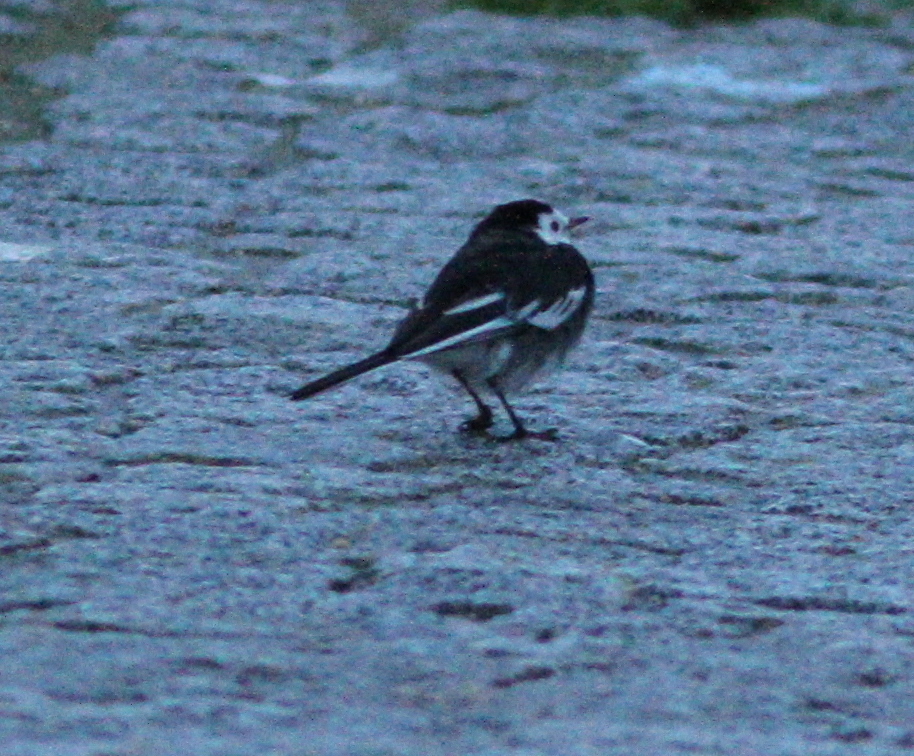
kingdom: Animalia
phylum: Chordata
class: Aves
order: Passeriformes
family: Motacillidae
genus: Motacilla
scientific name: Motacilla alba
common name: White wagtail
